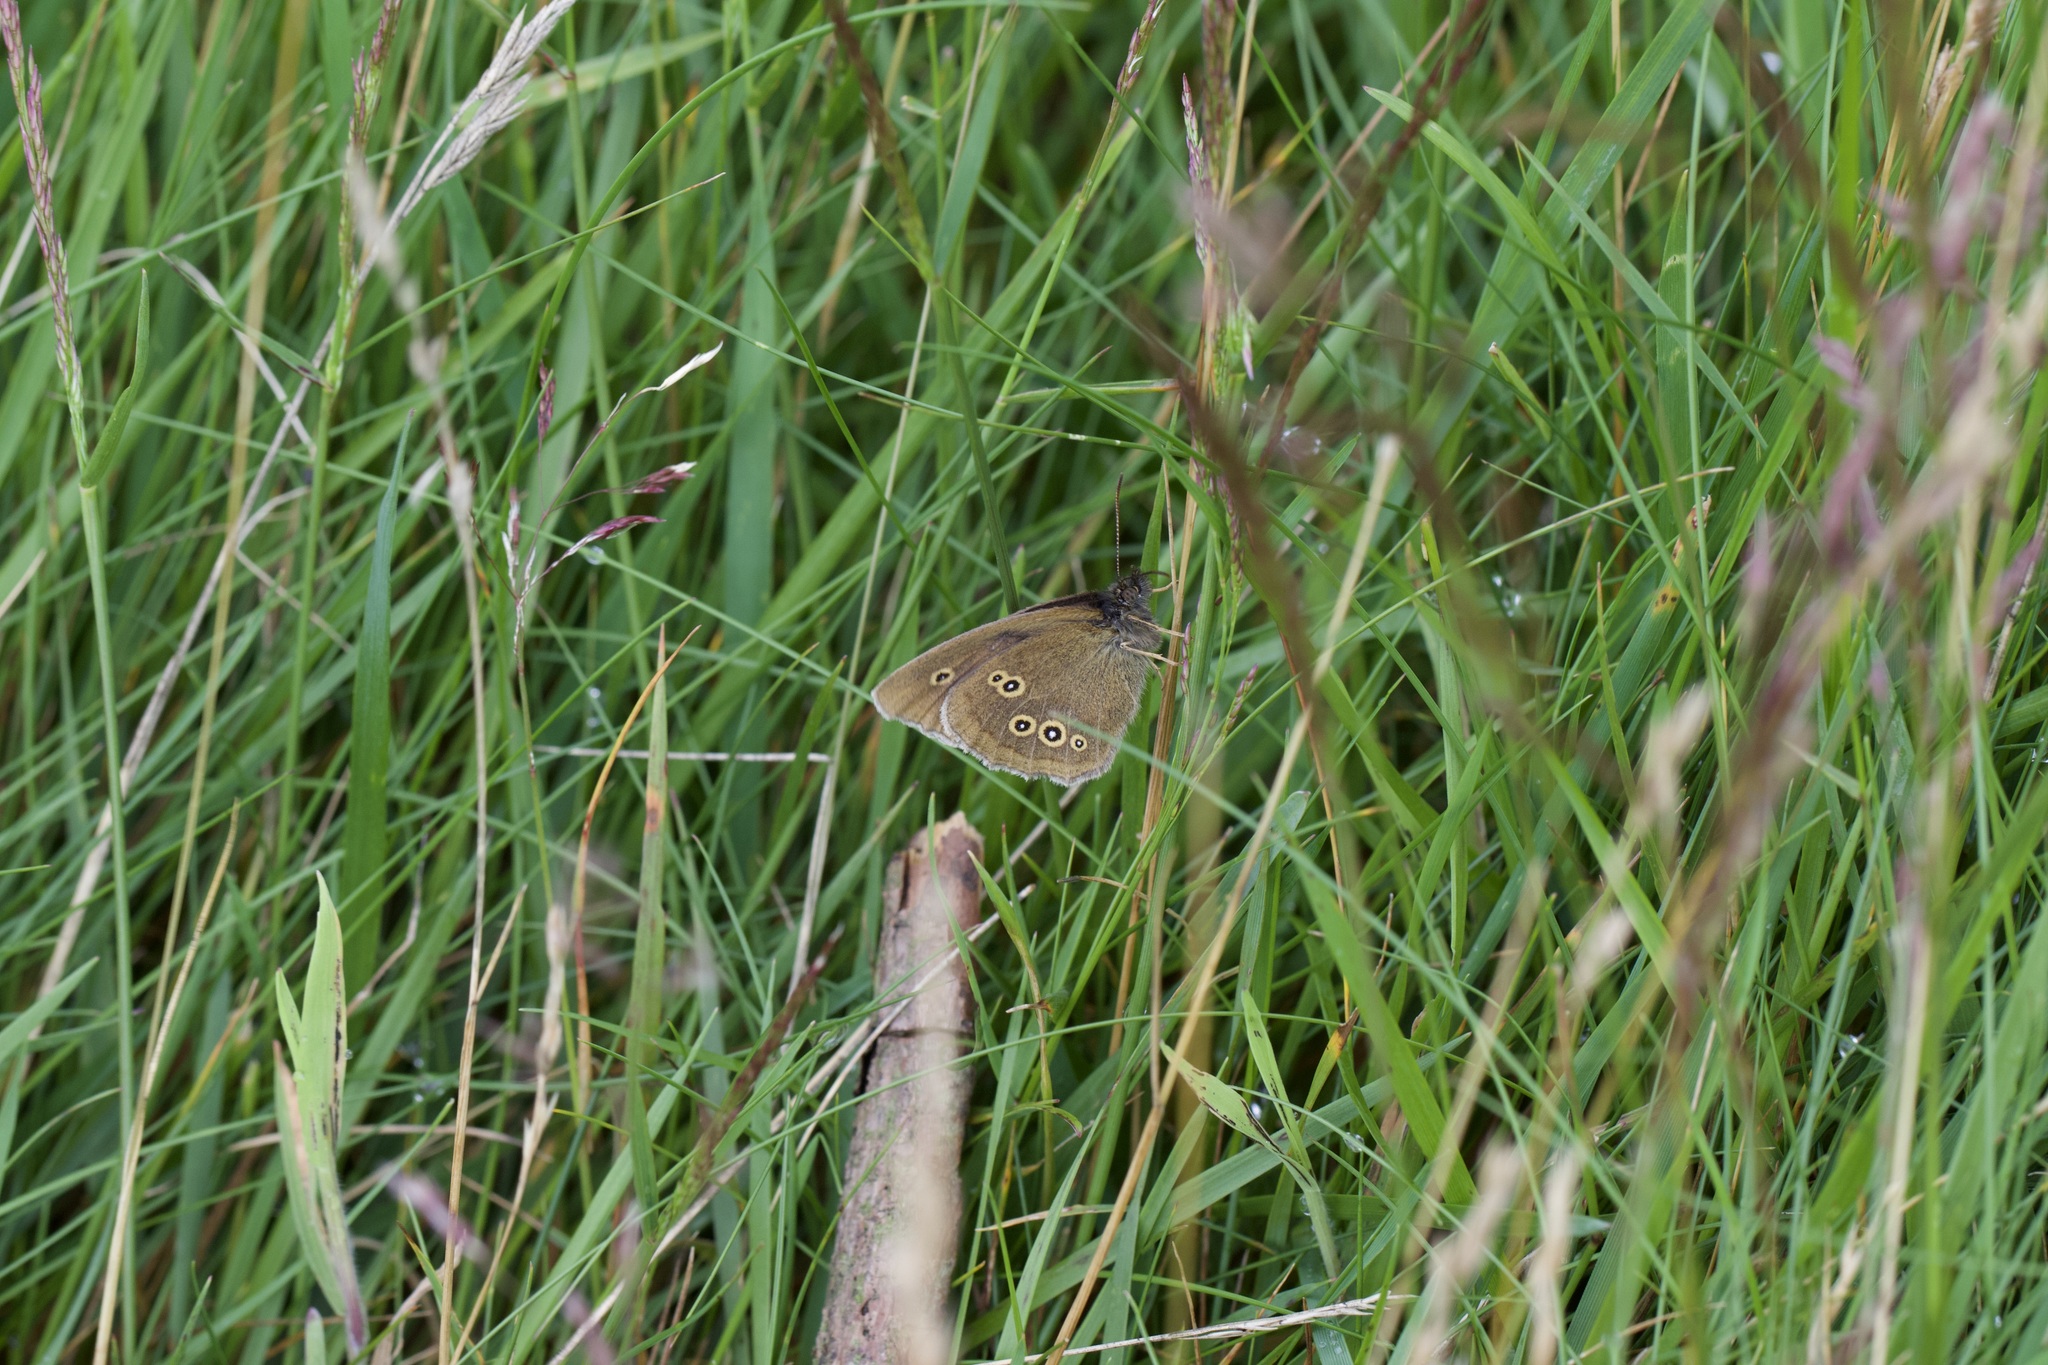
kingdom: Animalia
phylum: Arthropoda
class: Insecta
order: Lepidoptera
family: Nymphalidae
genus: Aphantopus
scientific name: Aphantopus hyperantus
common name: Ringlet
